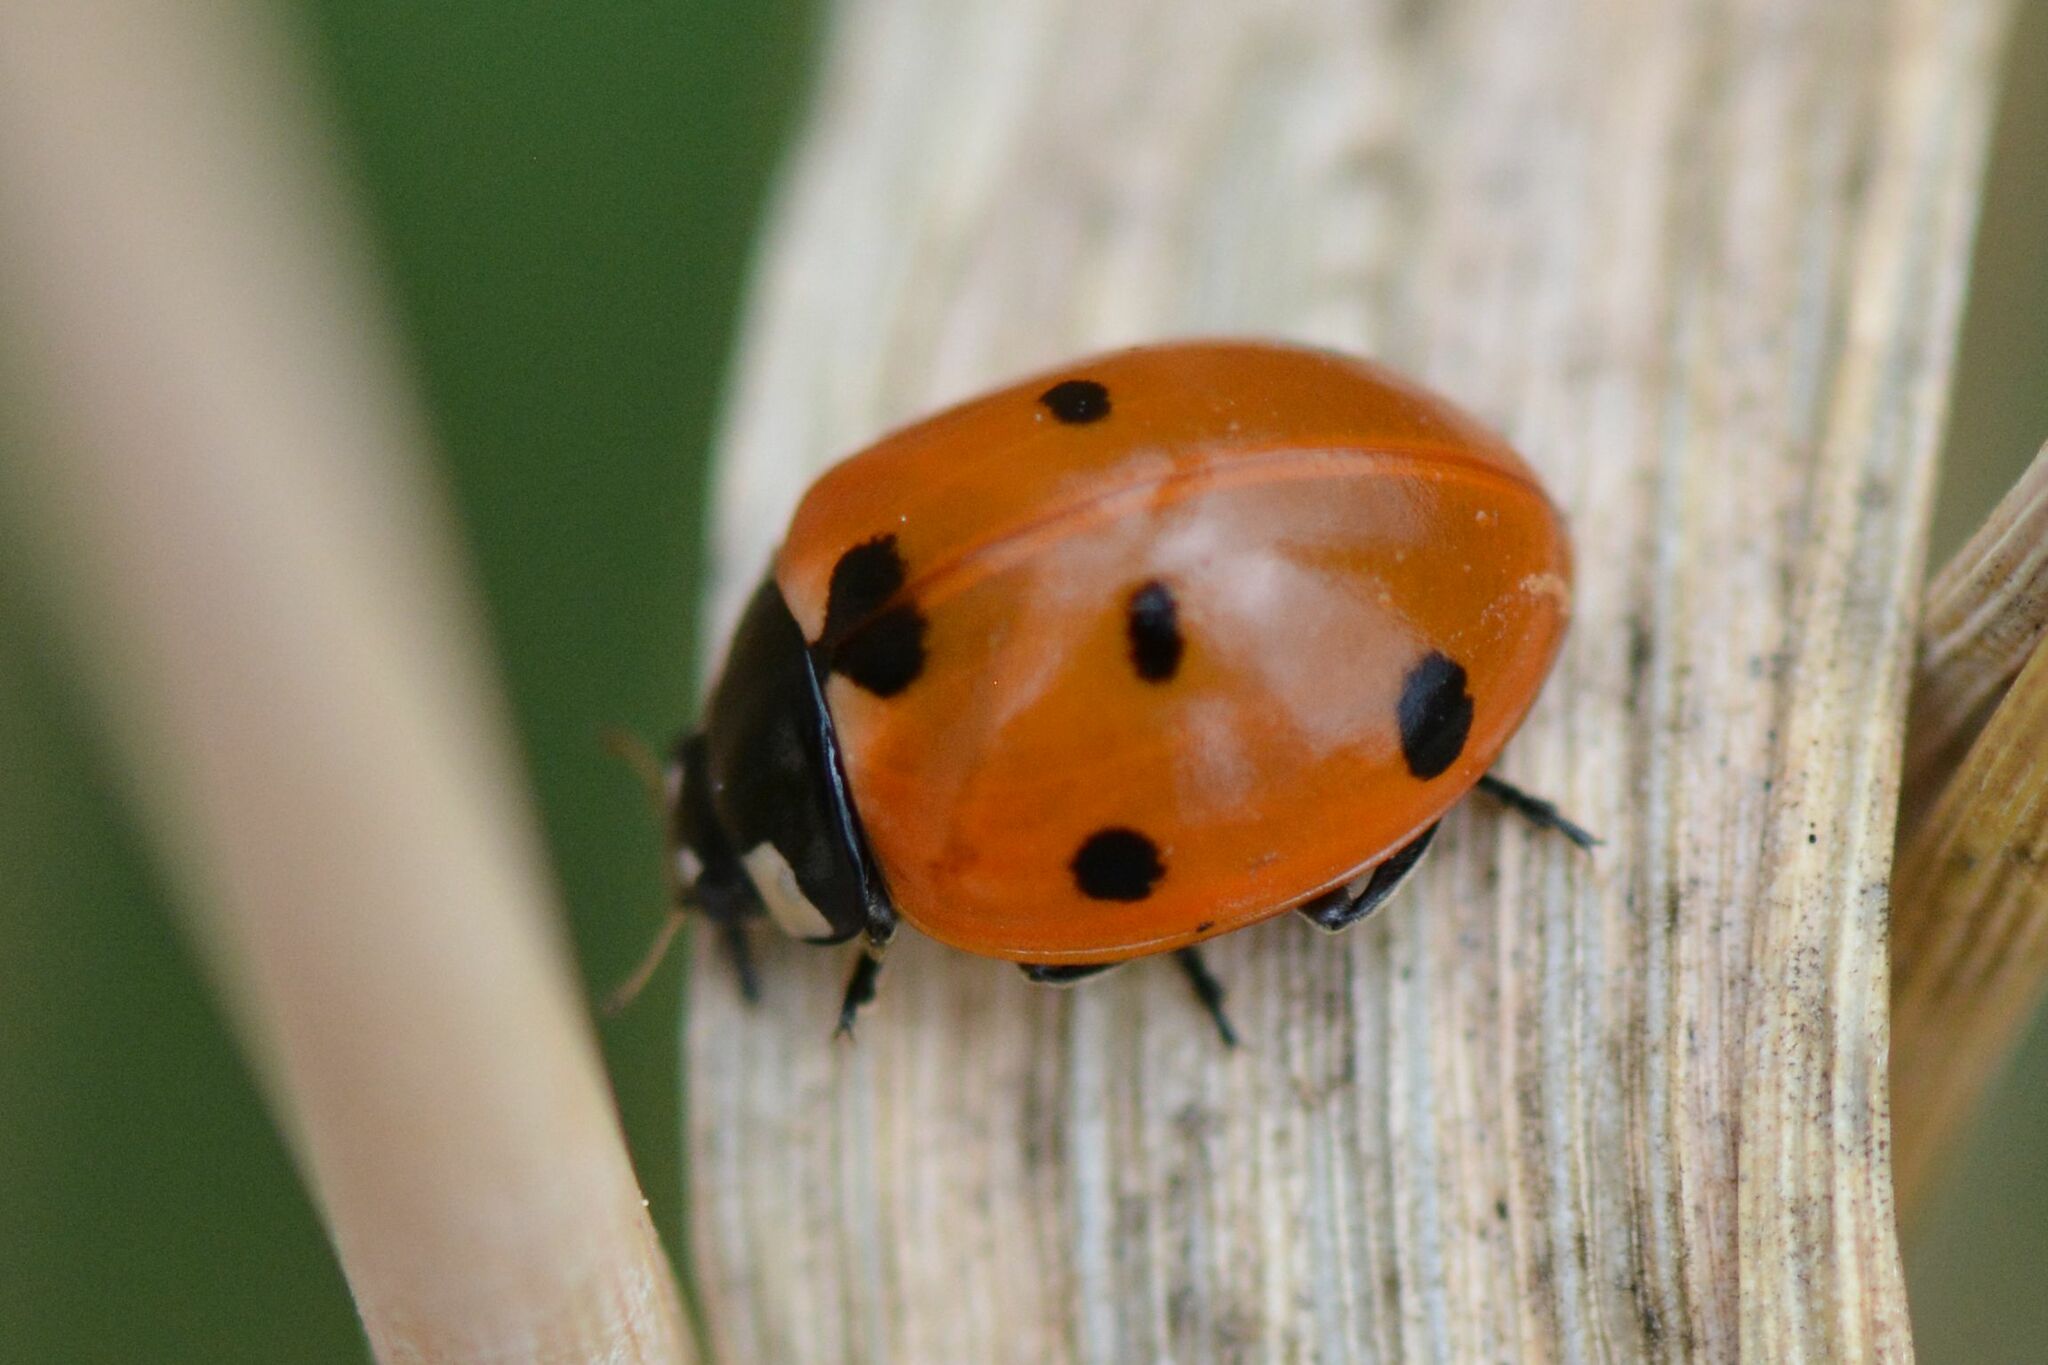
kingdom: Animalia
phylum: Arthropoda
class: Insecta
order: Coleoptera
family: Coccinellidae
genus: Coccinella
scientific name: Coccinella septempunctata
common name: Sevenspotted lady beetle
